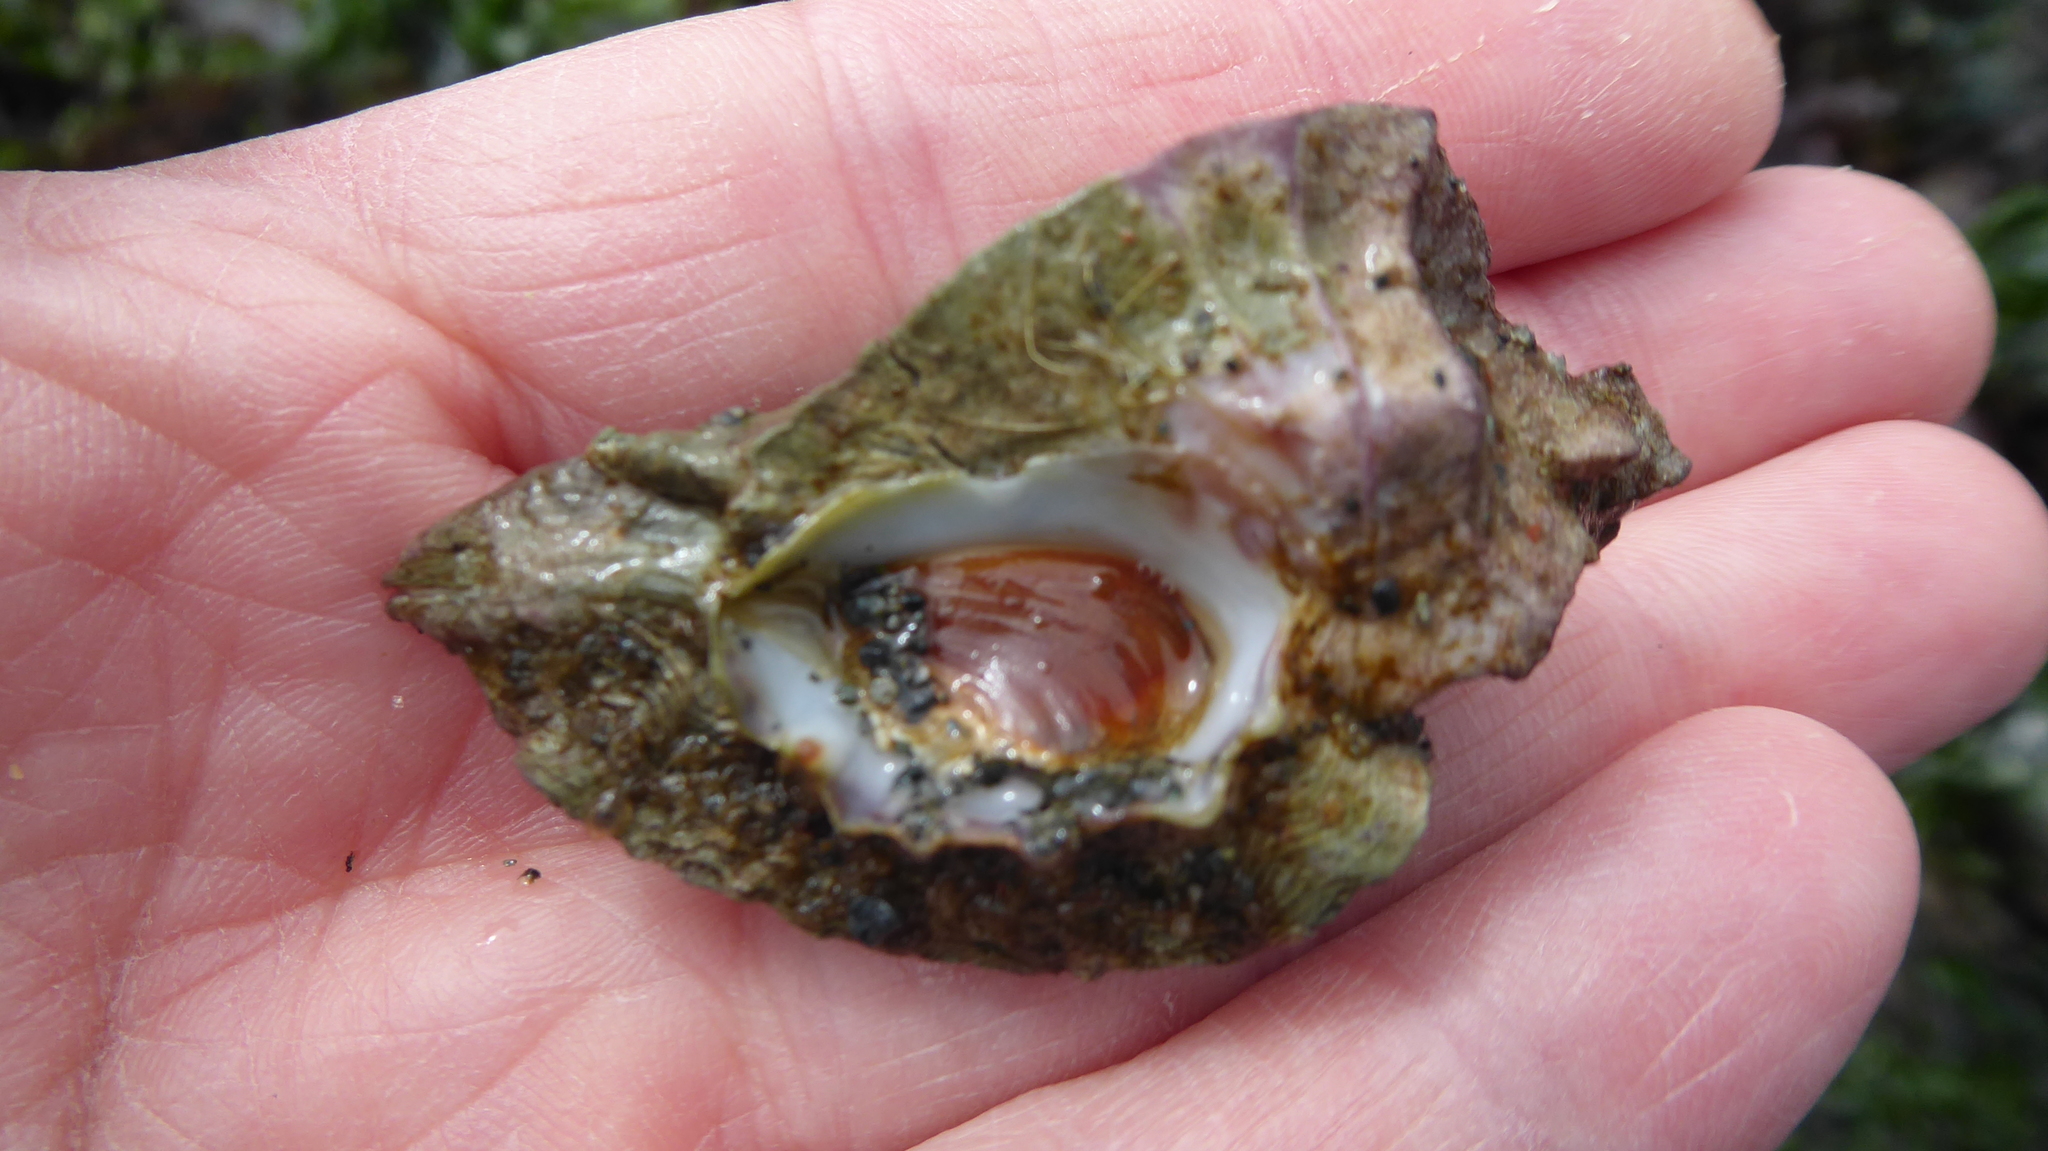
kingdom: Animalia
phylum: Mollusca
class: Gastropoda
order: Neogastropoda
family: Muricidae
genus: Ceratostoma
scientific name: Ceratostoma foliatum
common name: Foliate thorn purpura
